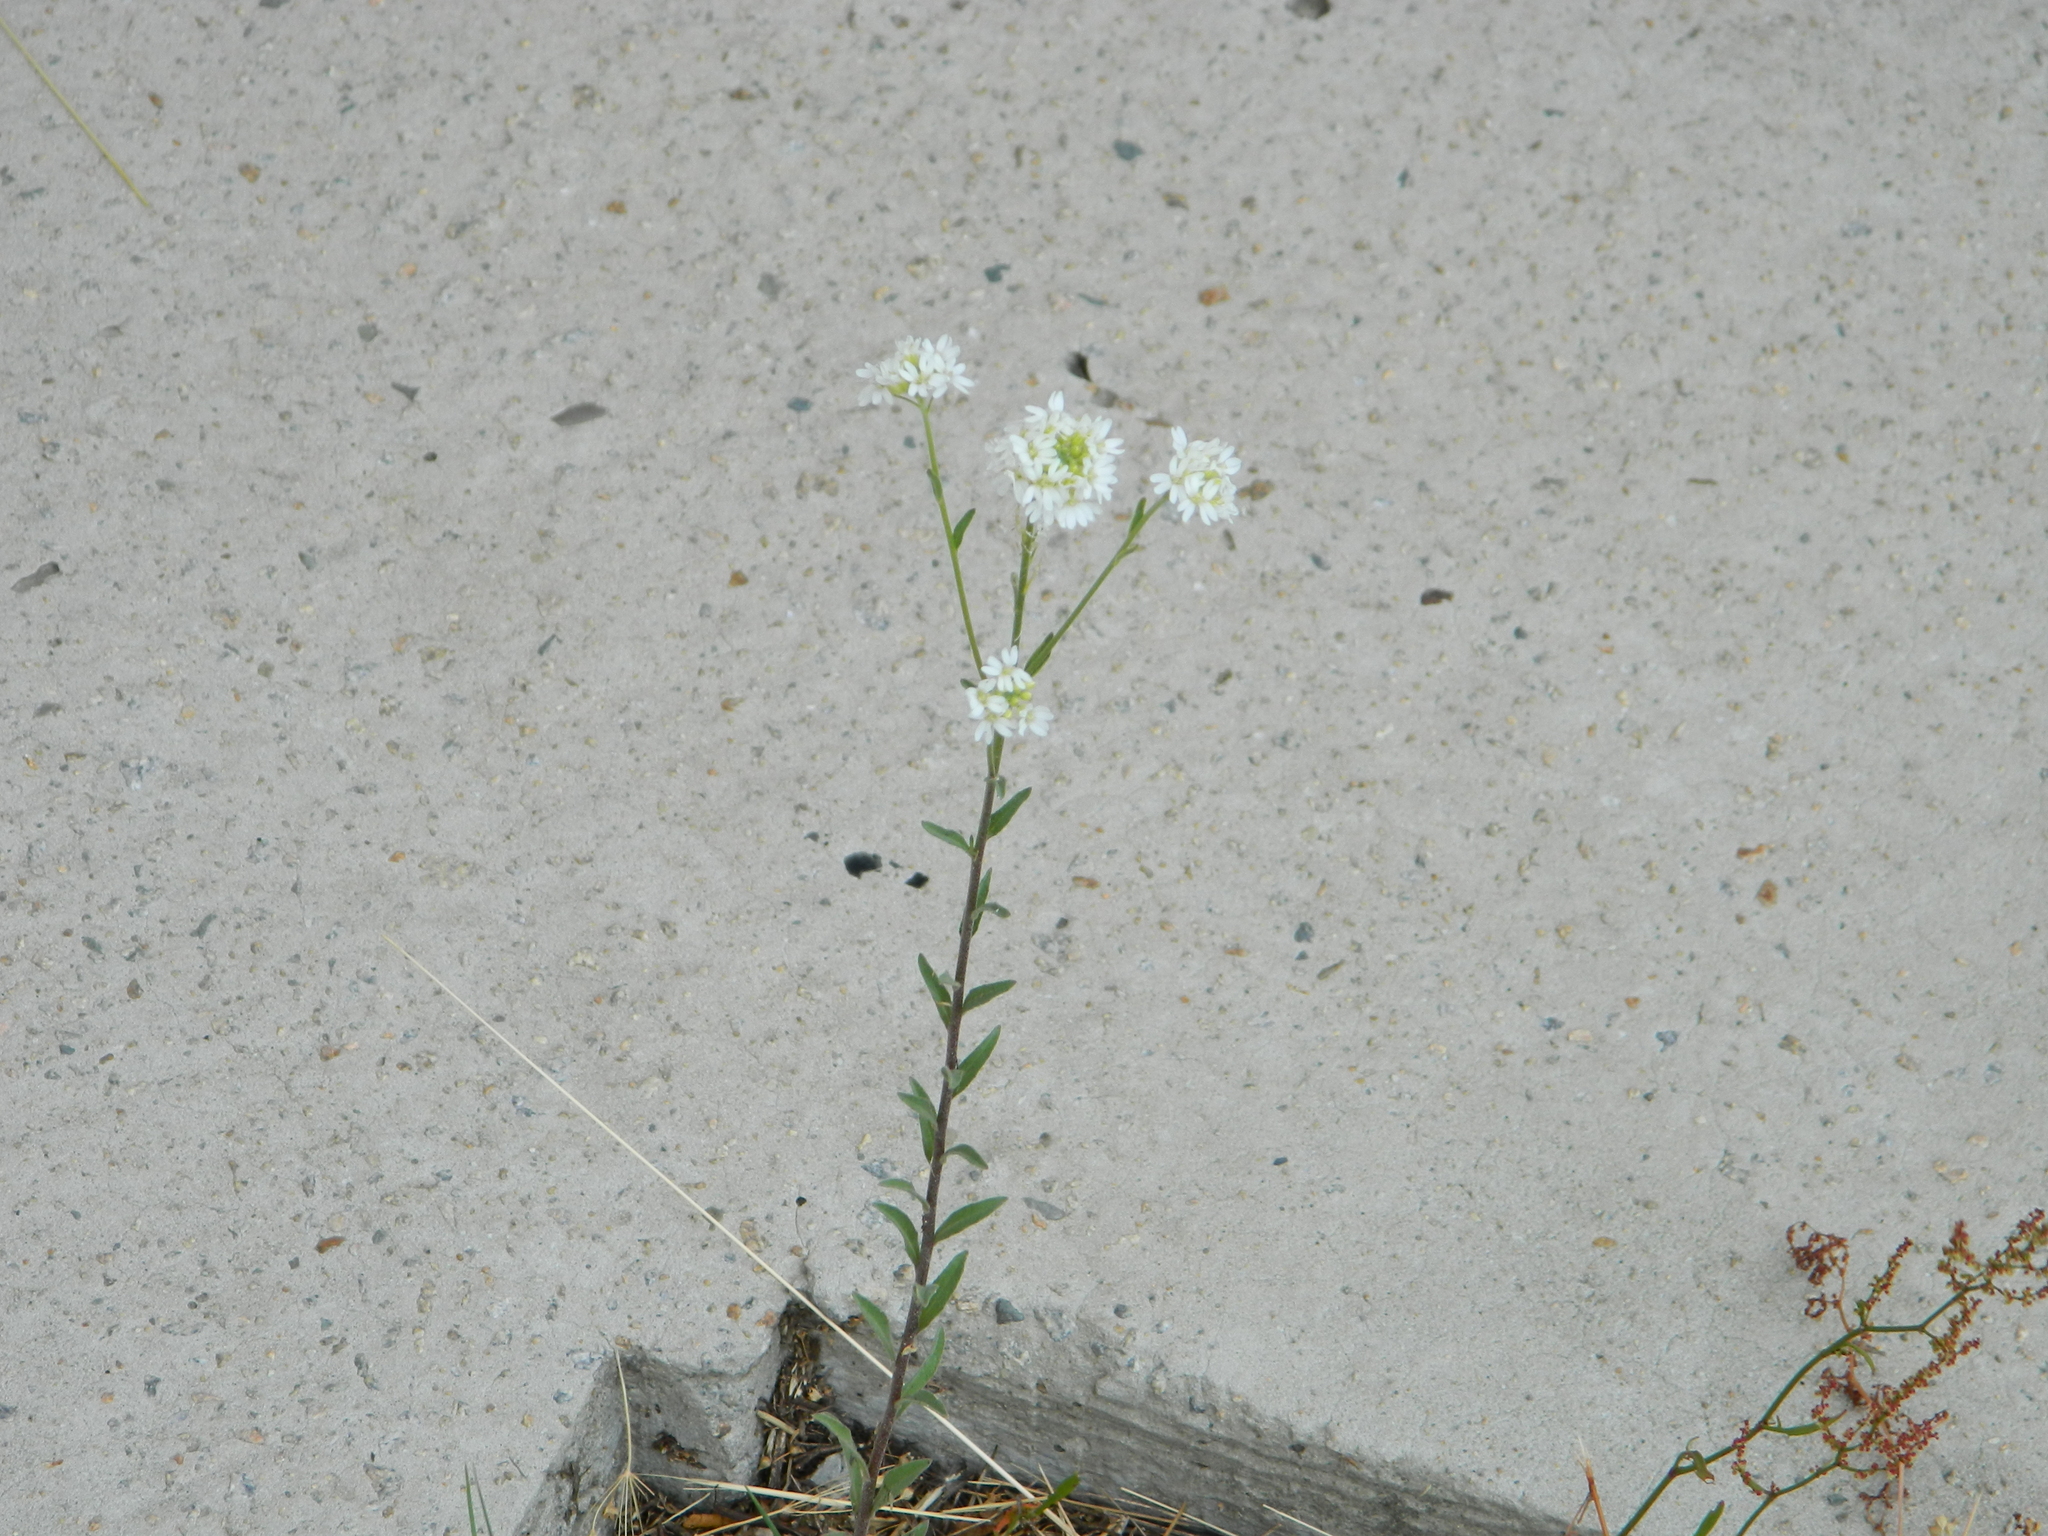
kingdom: Plantae
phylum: Tracheophyta
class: Magnoliopsida
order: Brassicales
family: Brassicaceae
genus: Berteroa
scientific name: Berteroa incana
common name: Hoary alison
